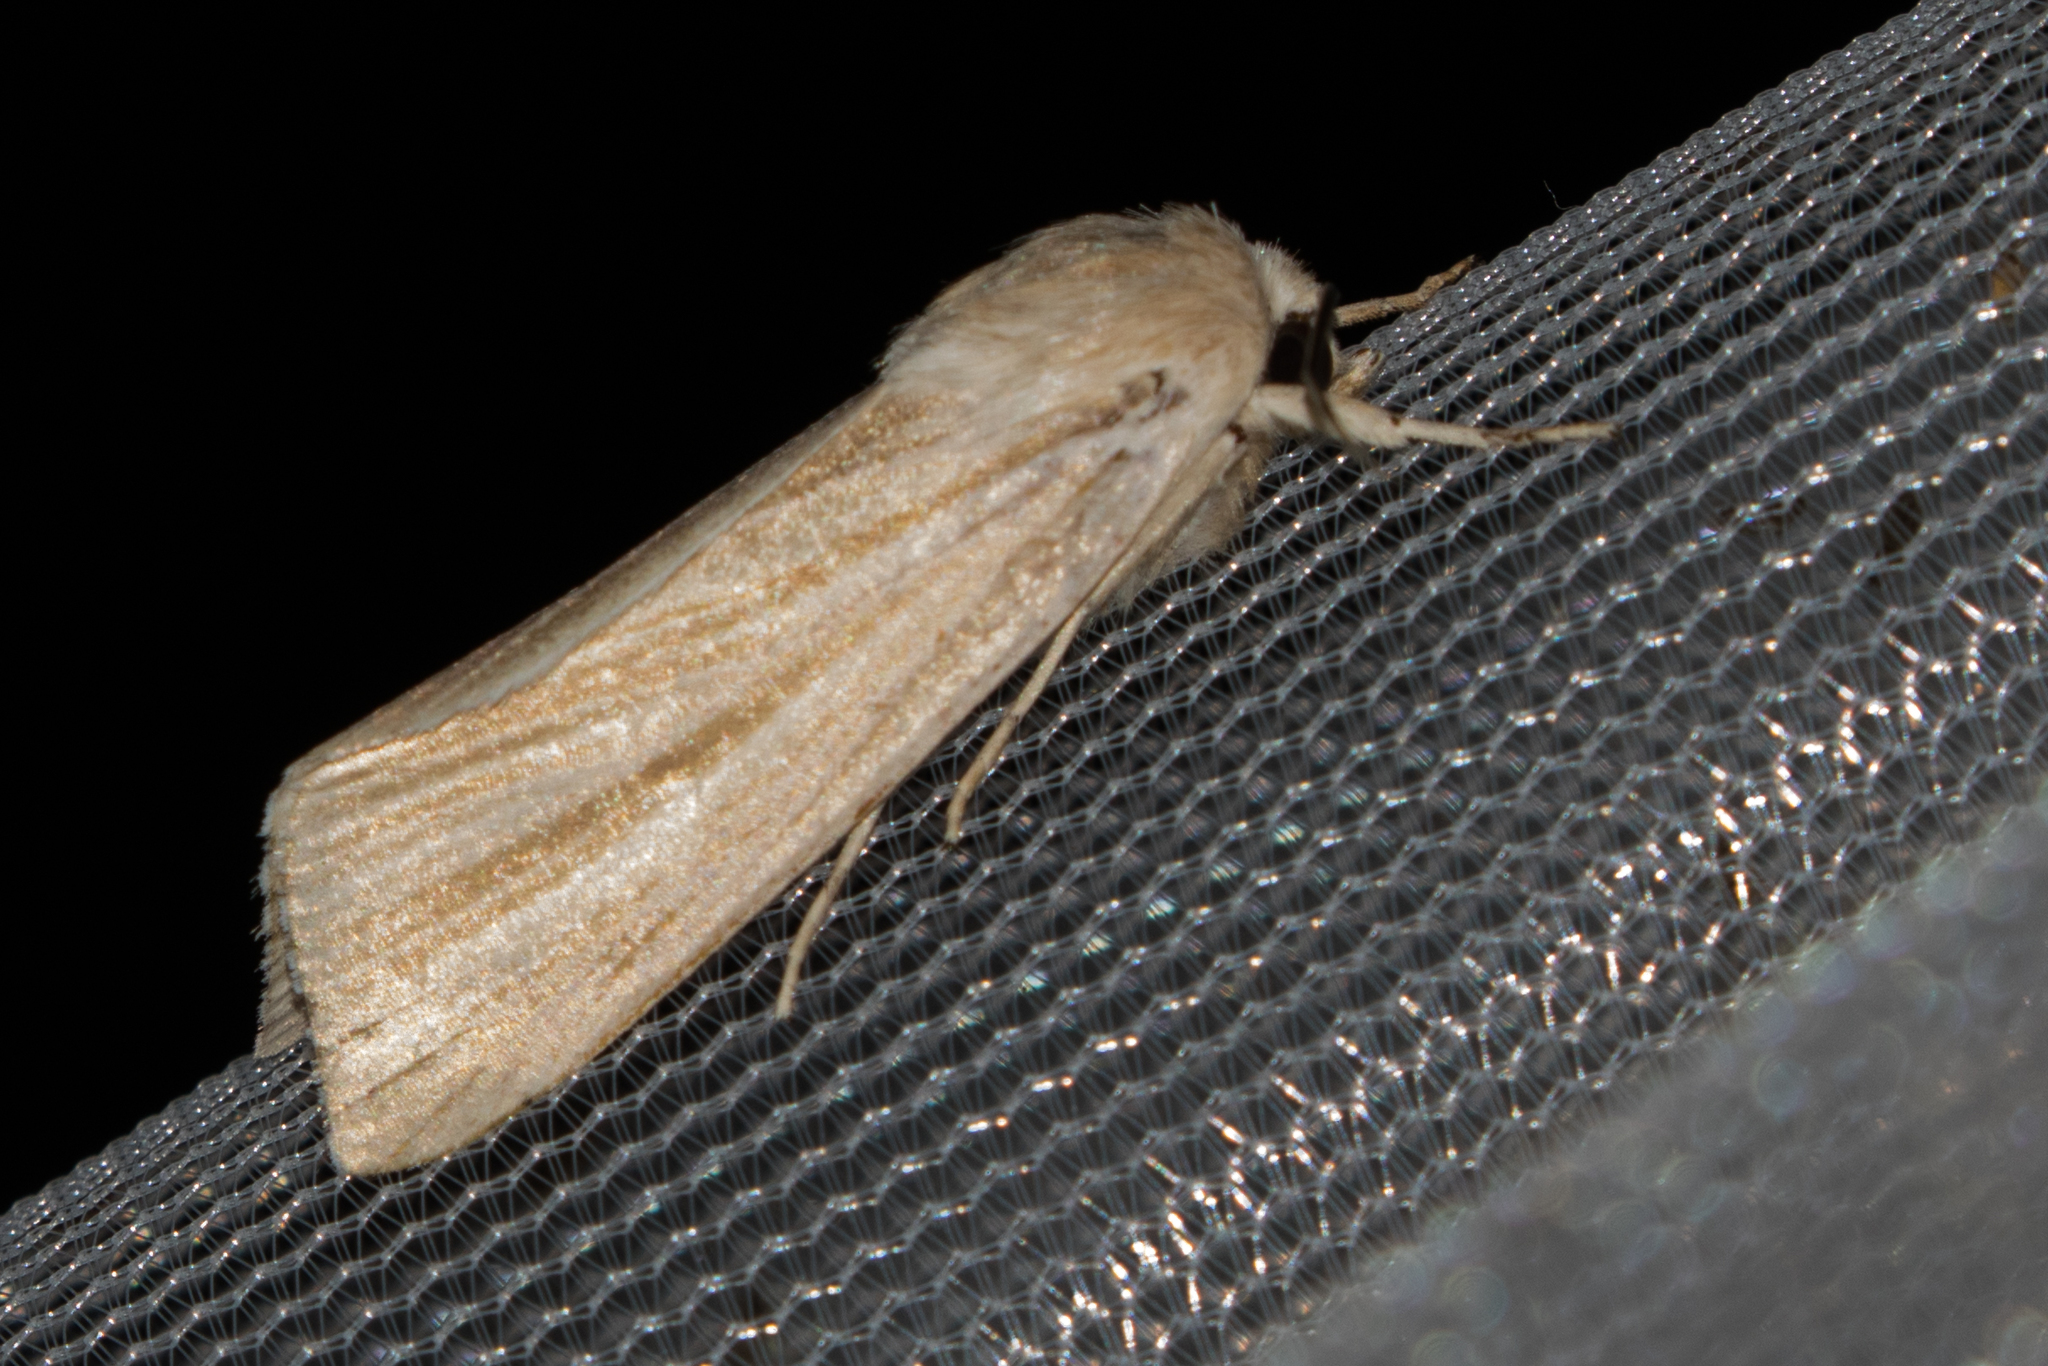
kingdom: Animalia
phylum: Arthropoda
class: Insecta
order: Lepidoptera
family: Noctuidae
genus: Acronicta
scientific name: Acronicta insularis
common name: Henry's marsh moth
